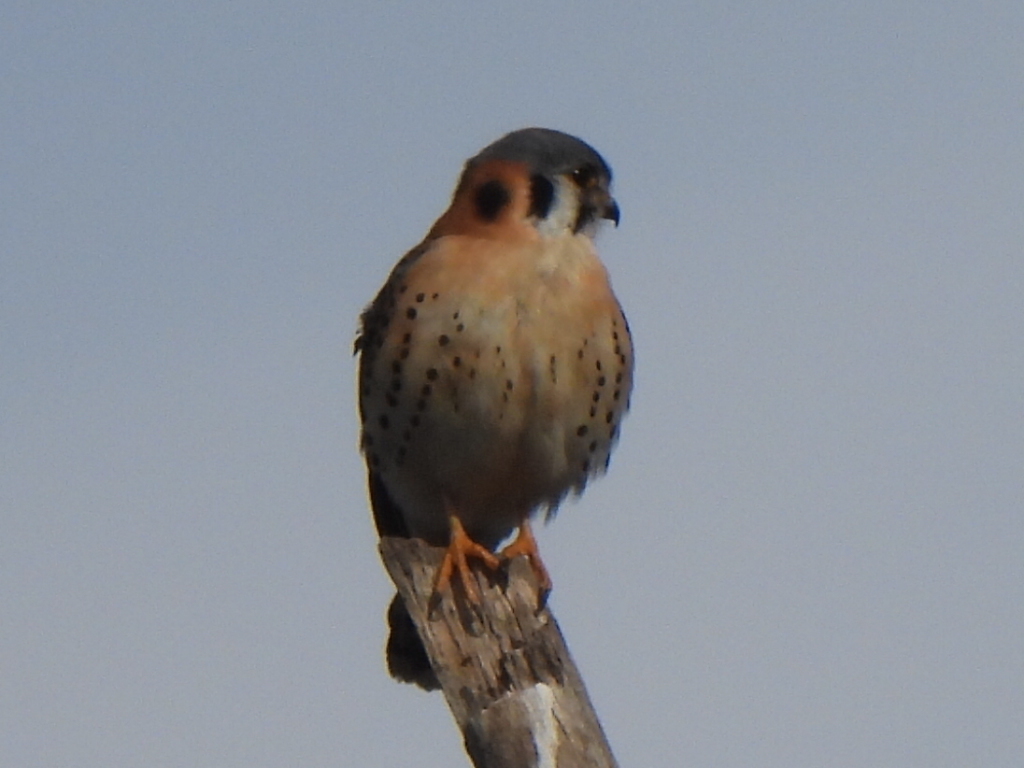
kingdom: Animalia
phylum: Chordata
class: Aves
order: Falconiformes
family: Falconidae
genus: Falco
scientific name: Falco sparverius
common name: American kestrel
